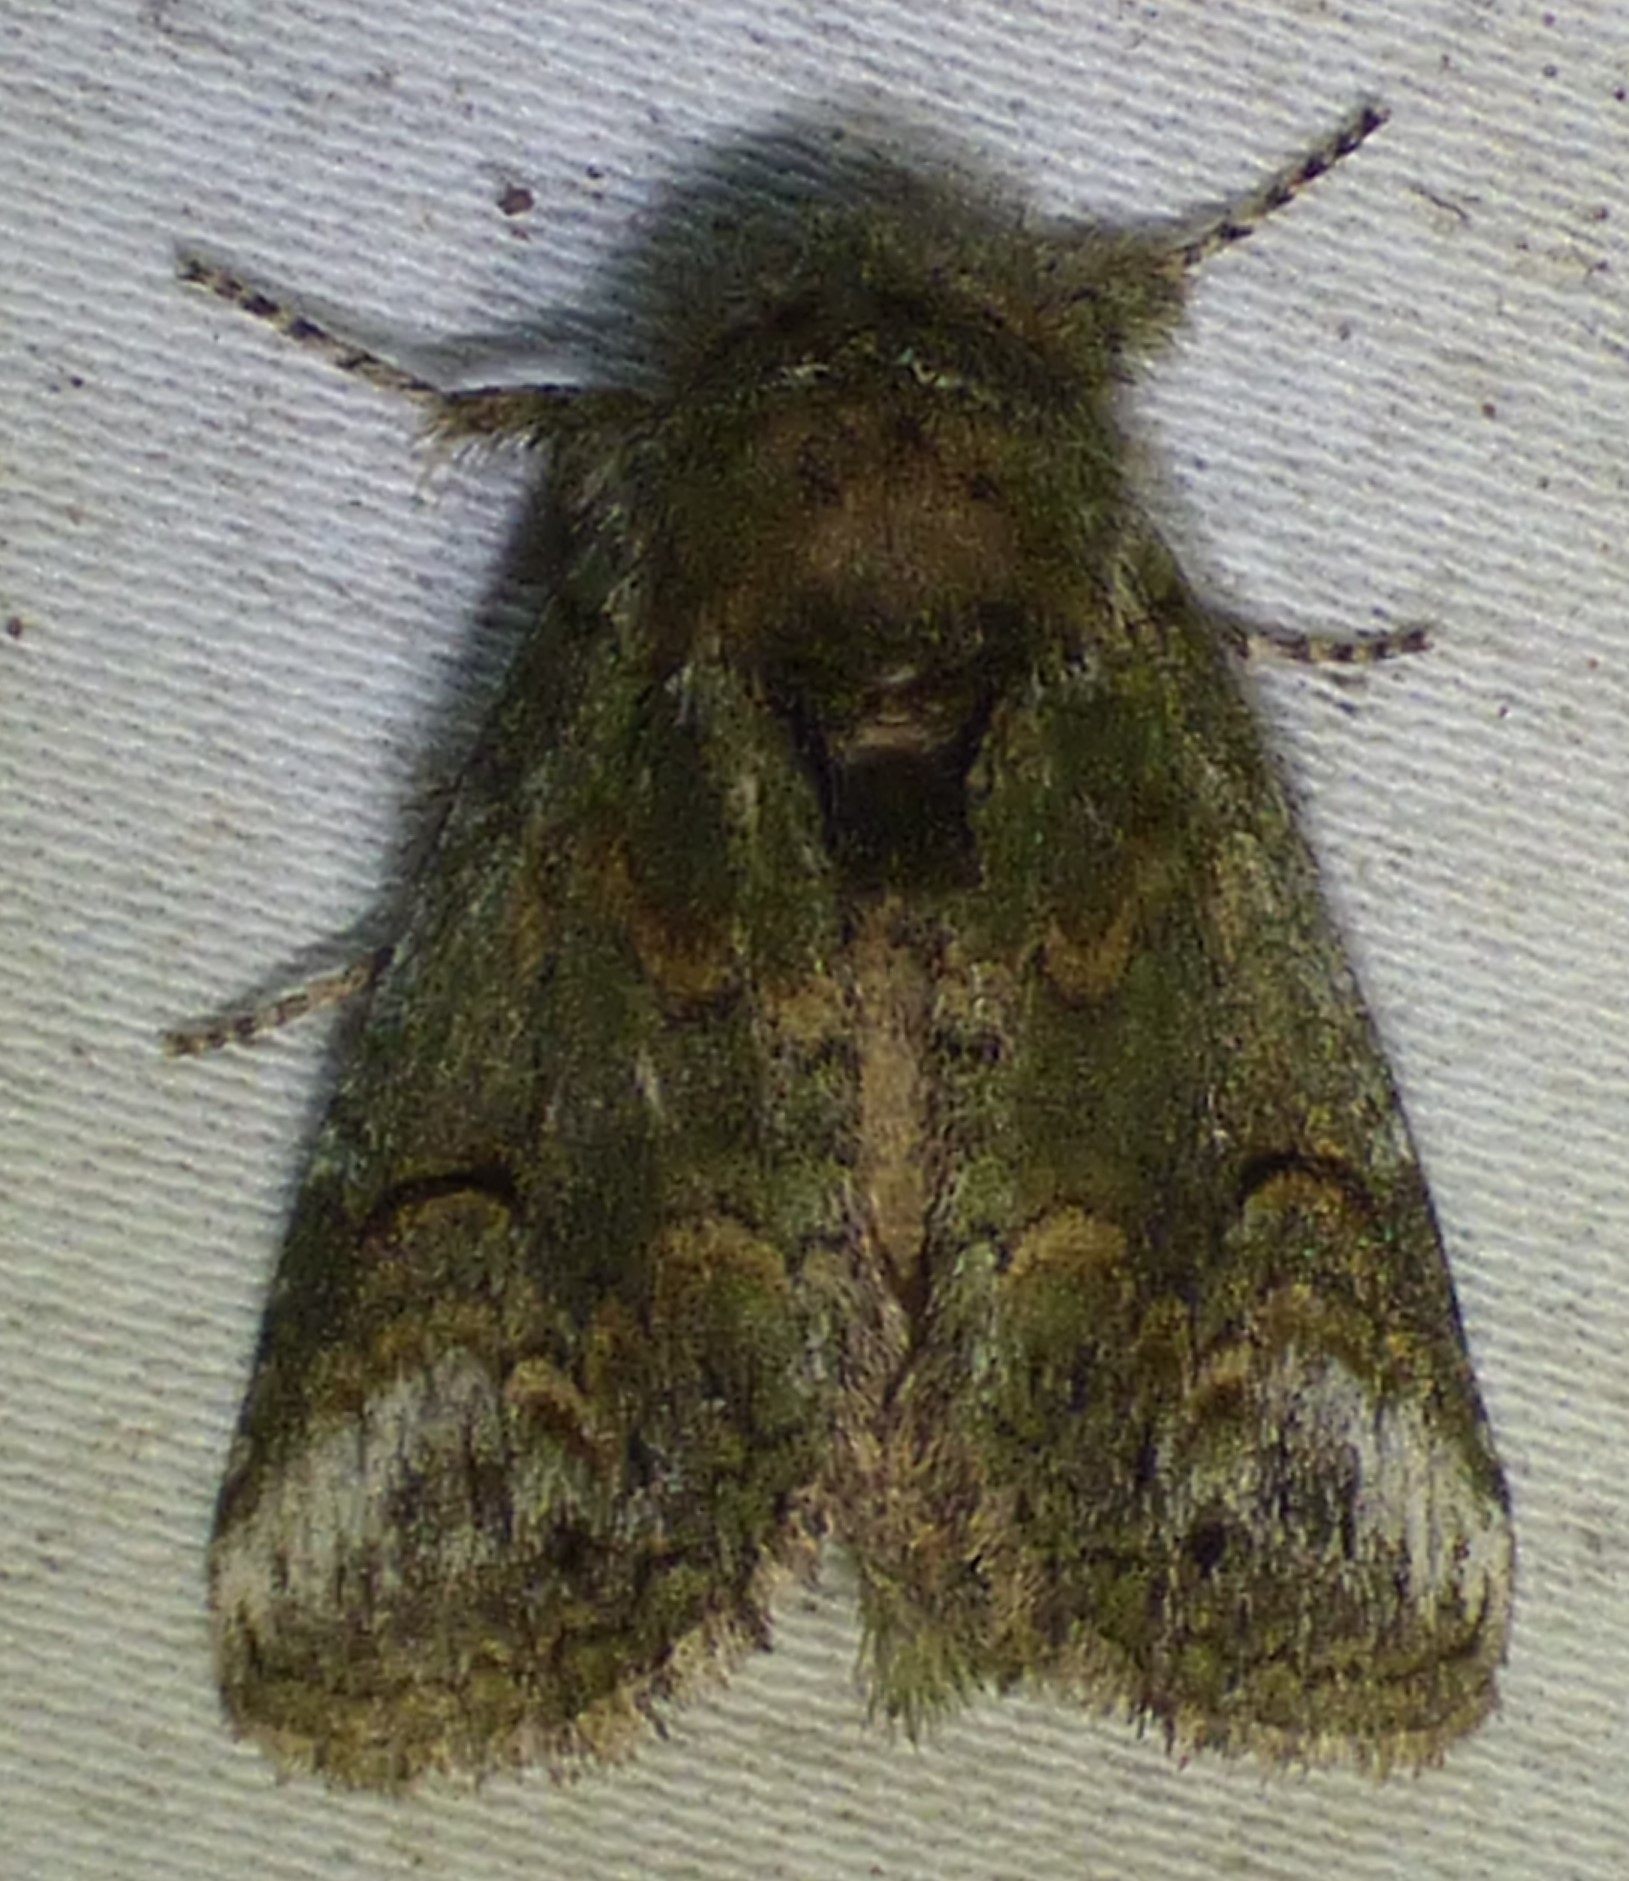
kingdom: Animalia
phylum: Arthropoda
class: Insecta
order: Lepidoptera
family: Notodontidae
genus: Disphragis
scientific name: Disphragis Cecrita biundata
